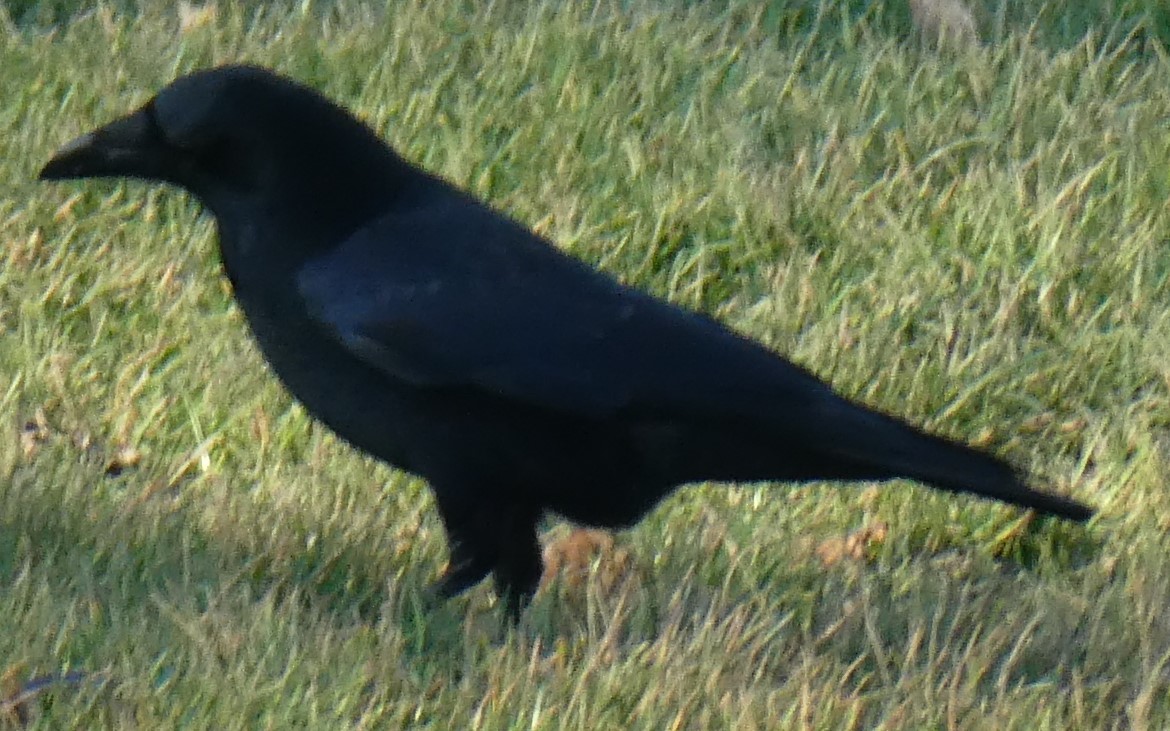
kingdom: Animalia
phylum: Chordata
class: Aves
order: Passeriformes
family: Corvidae
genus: Corvus
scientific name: Corvus corone
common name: Carrion crow
